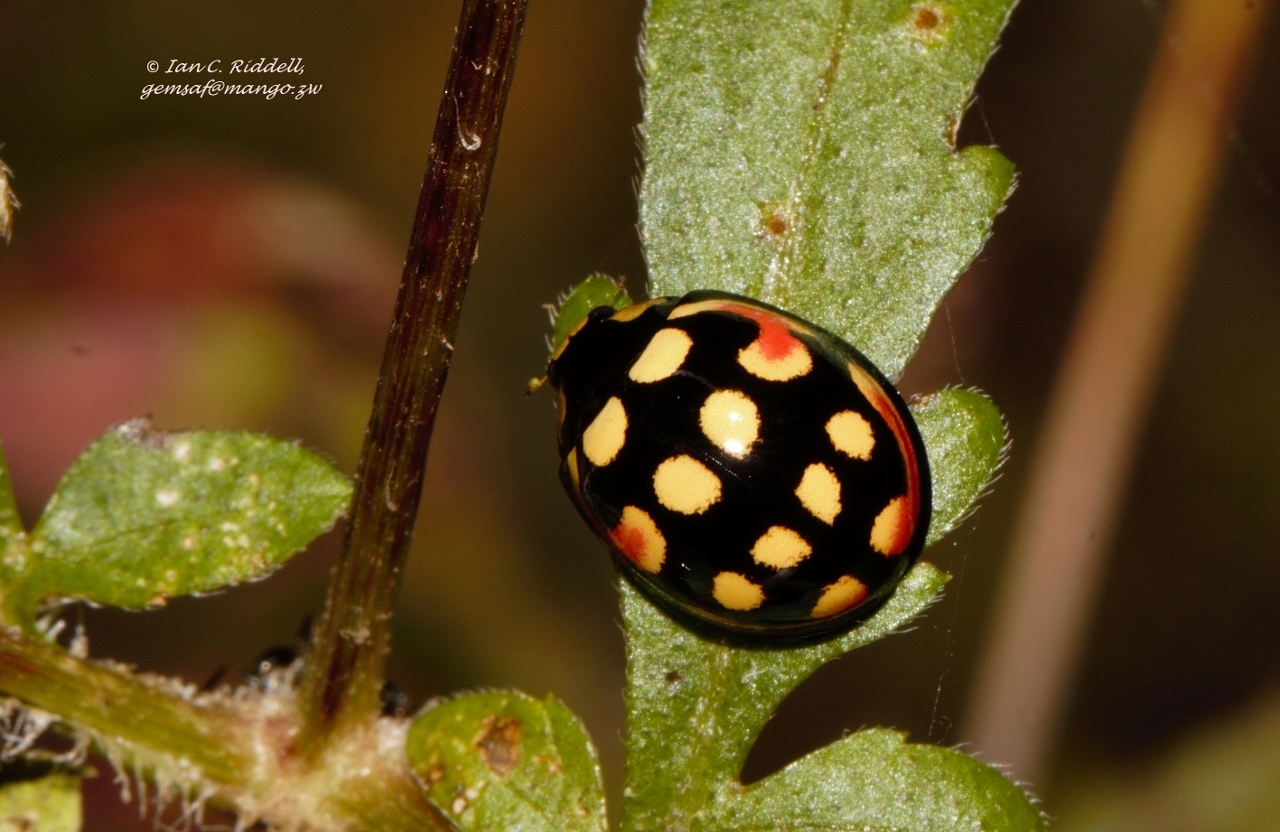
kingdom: Animalia
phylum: Arthropoda
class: Insecta
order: Coleoptera
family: Coccinellidae
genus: Cheilomenes
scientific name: Cheilomenes sulphurea
